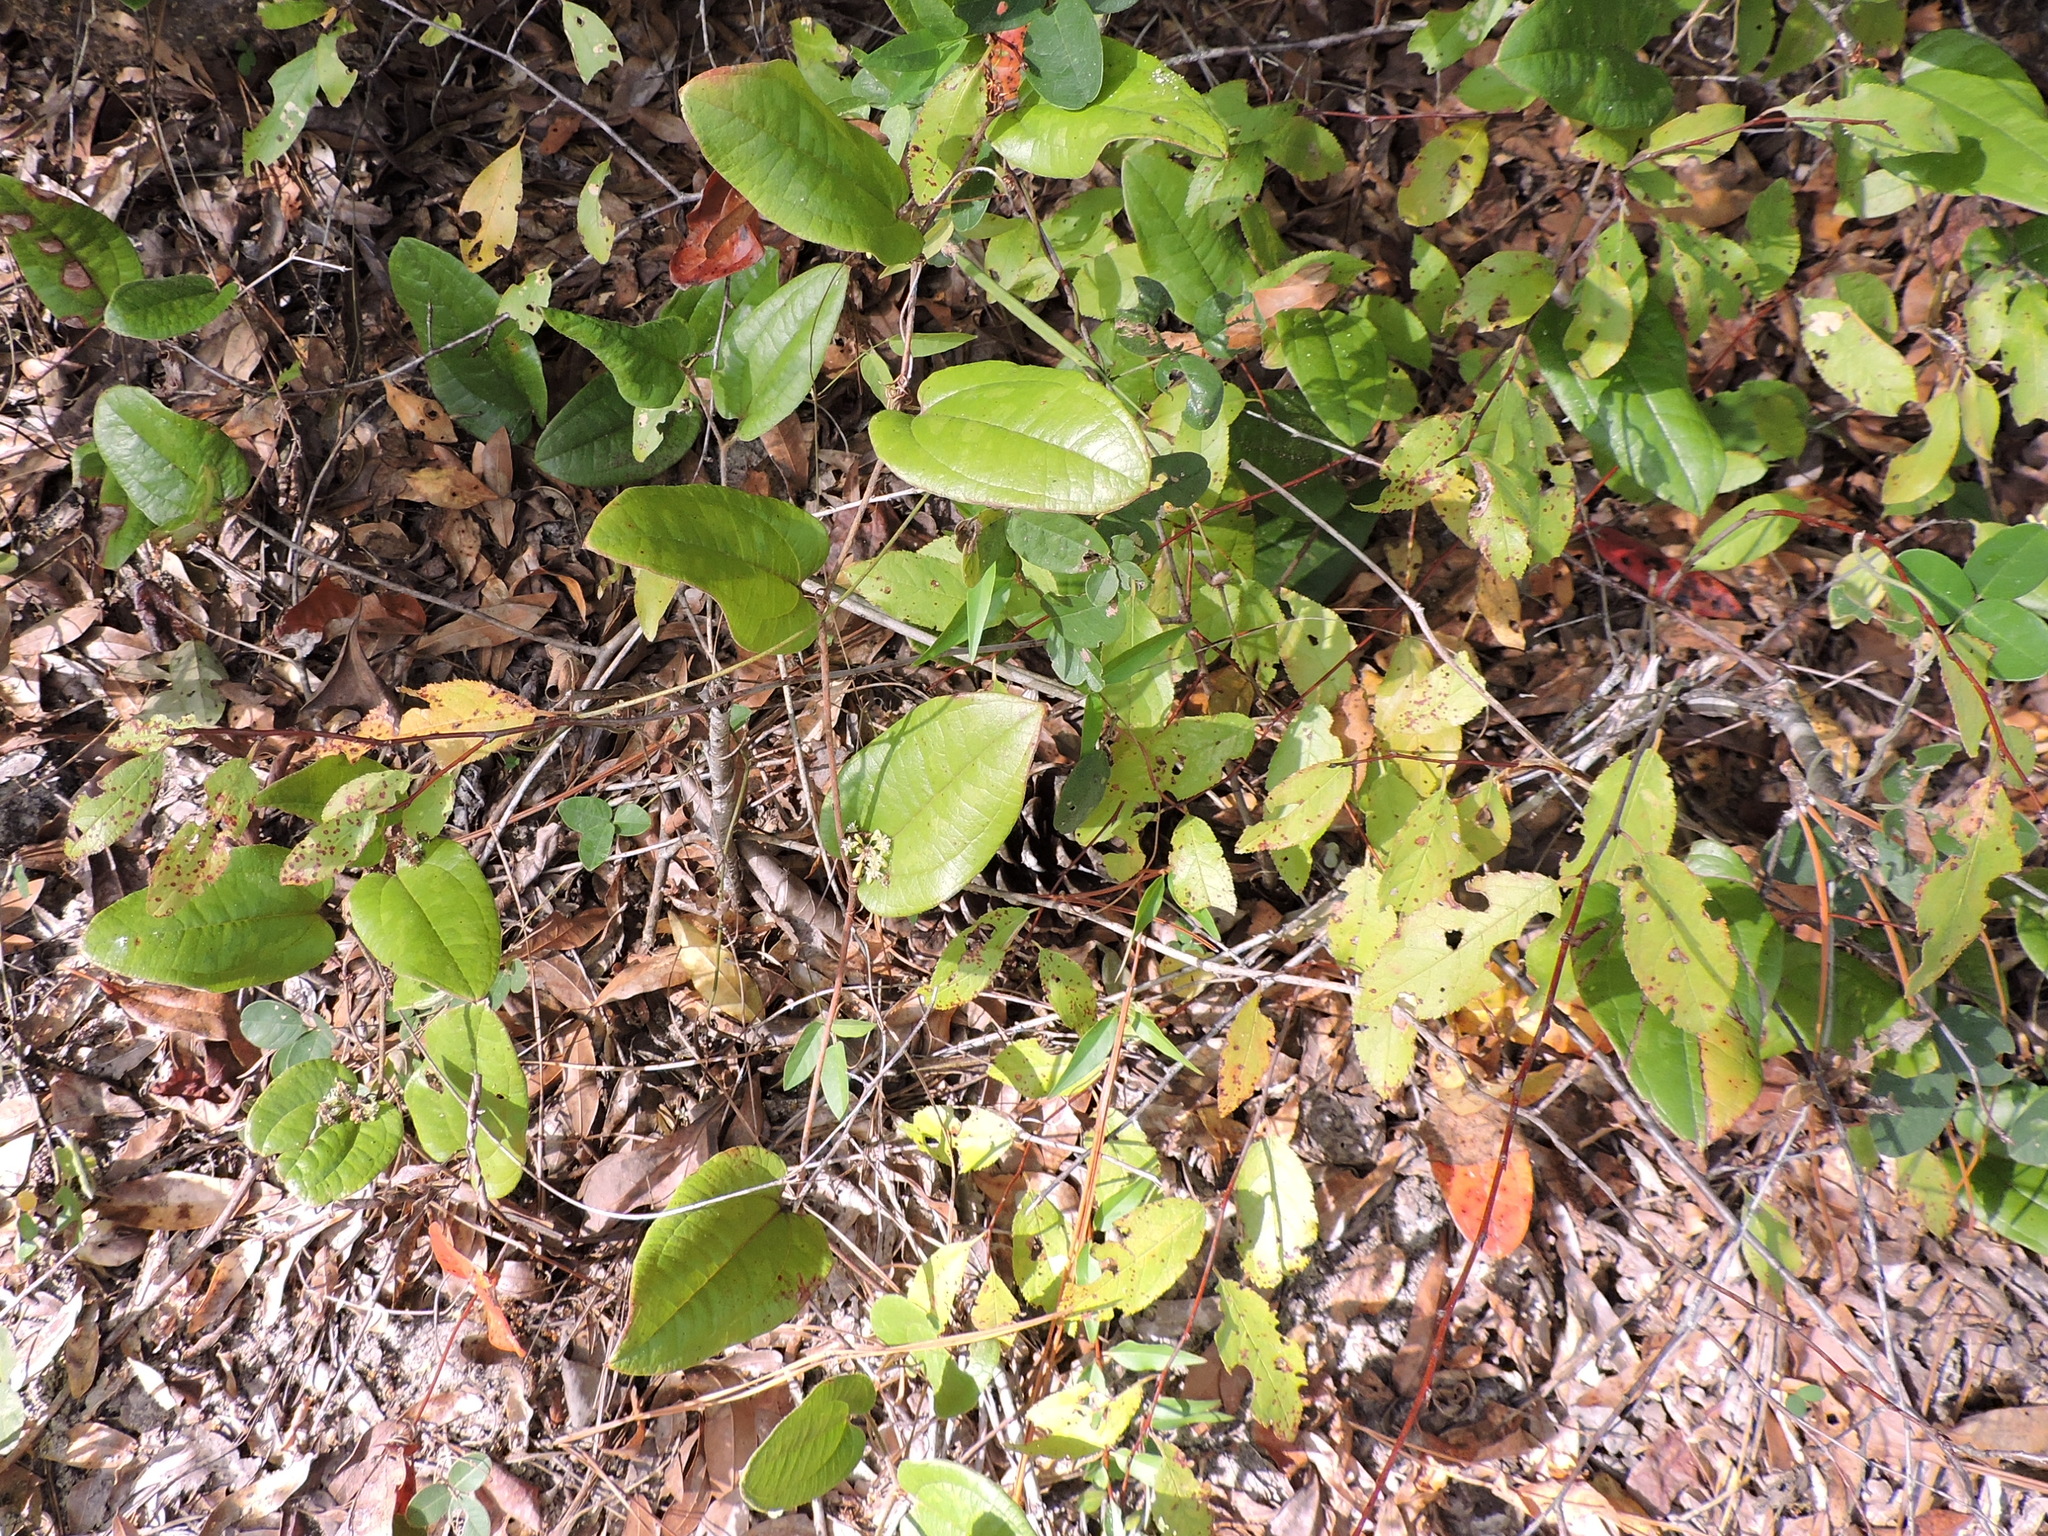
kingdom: Plantae
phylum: Tracheophyta
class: Liliopsida
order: Liliales
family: Smilacaceae
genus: Smilax
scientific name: Smilax pumila
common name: Sarsaparilla-vine
